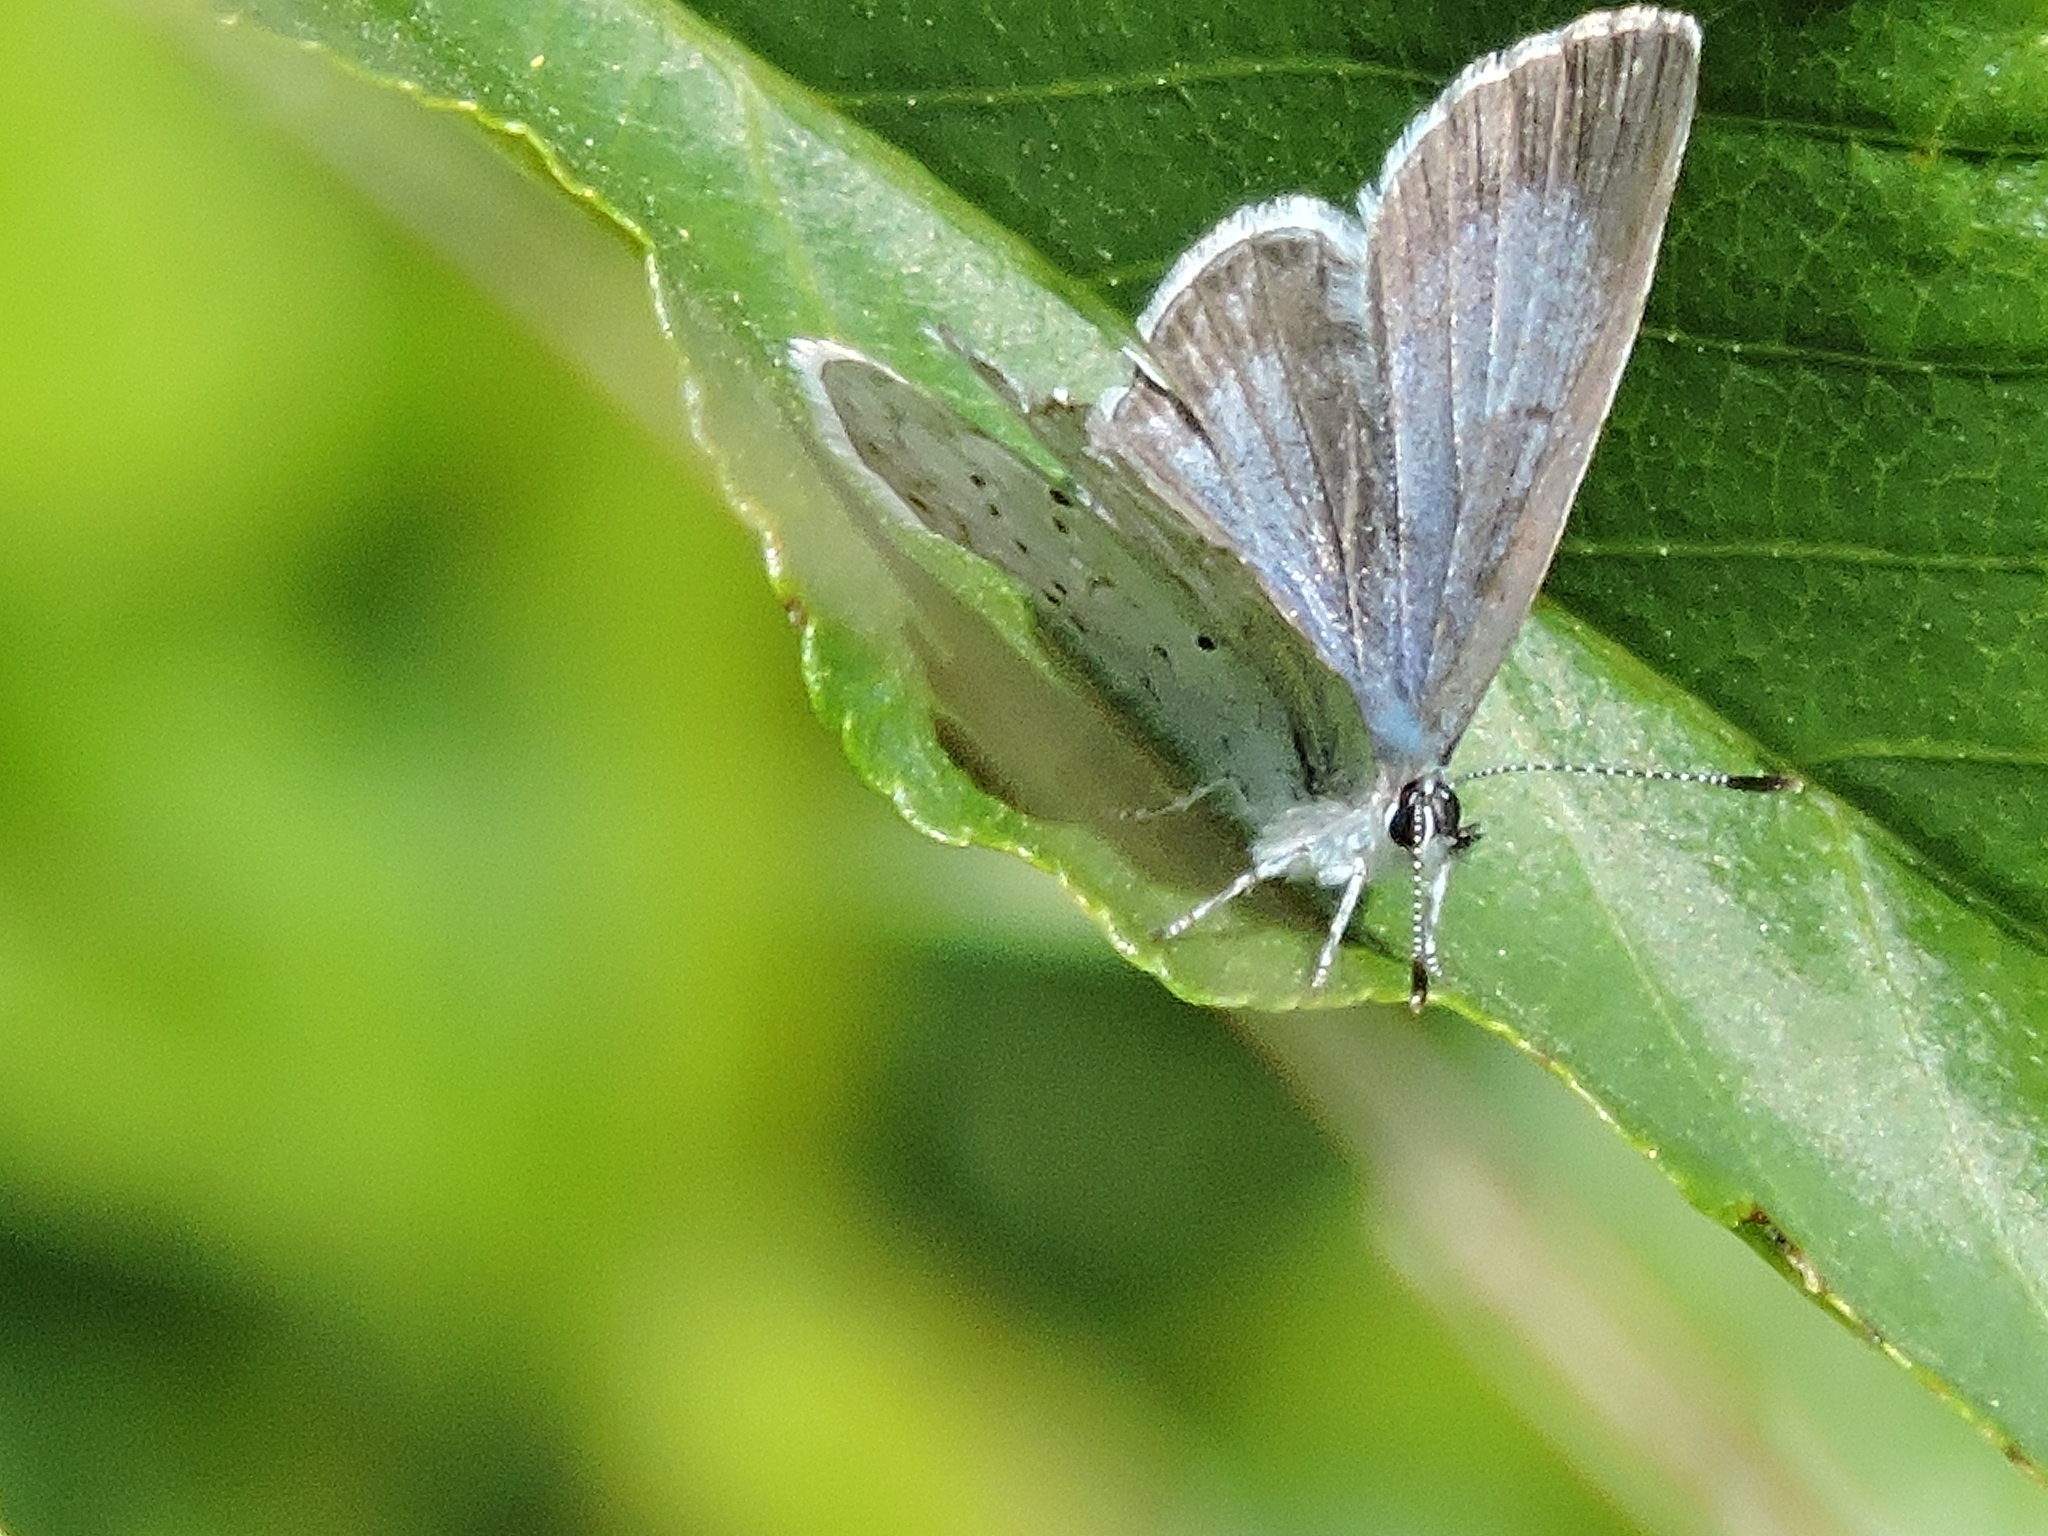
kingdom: Animalia
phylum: Arthropoda
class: Insecta
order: Lepidoptera
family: Lycaenidae
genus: Celastrina
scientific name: Celastrina ladon
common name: Spring azure
